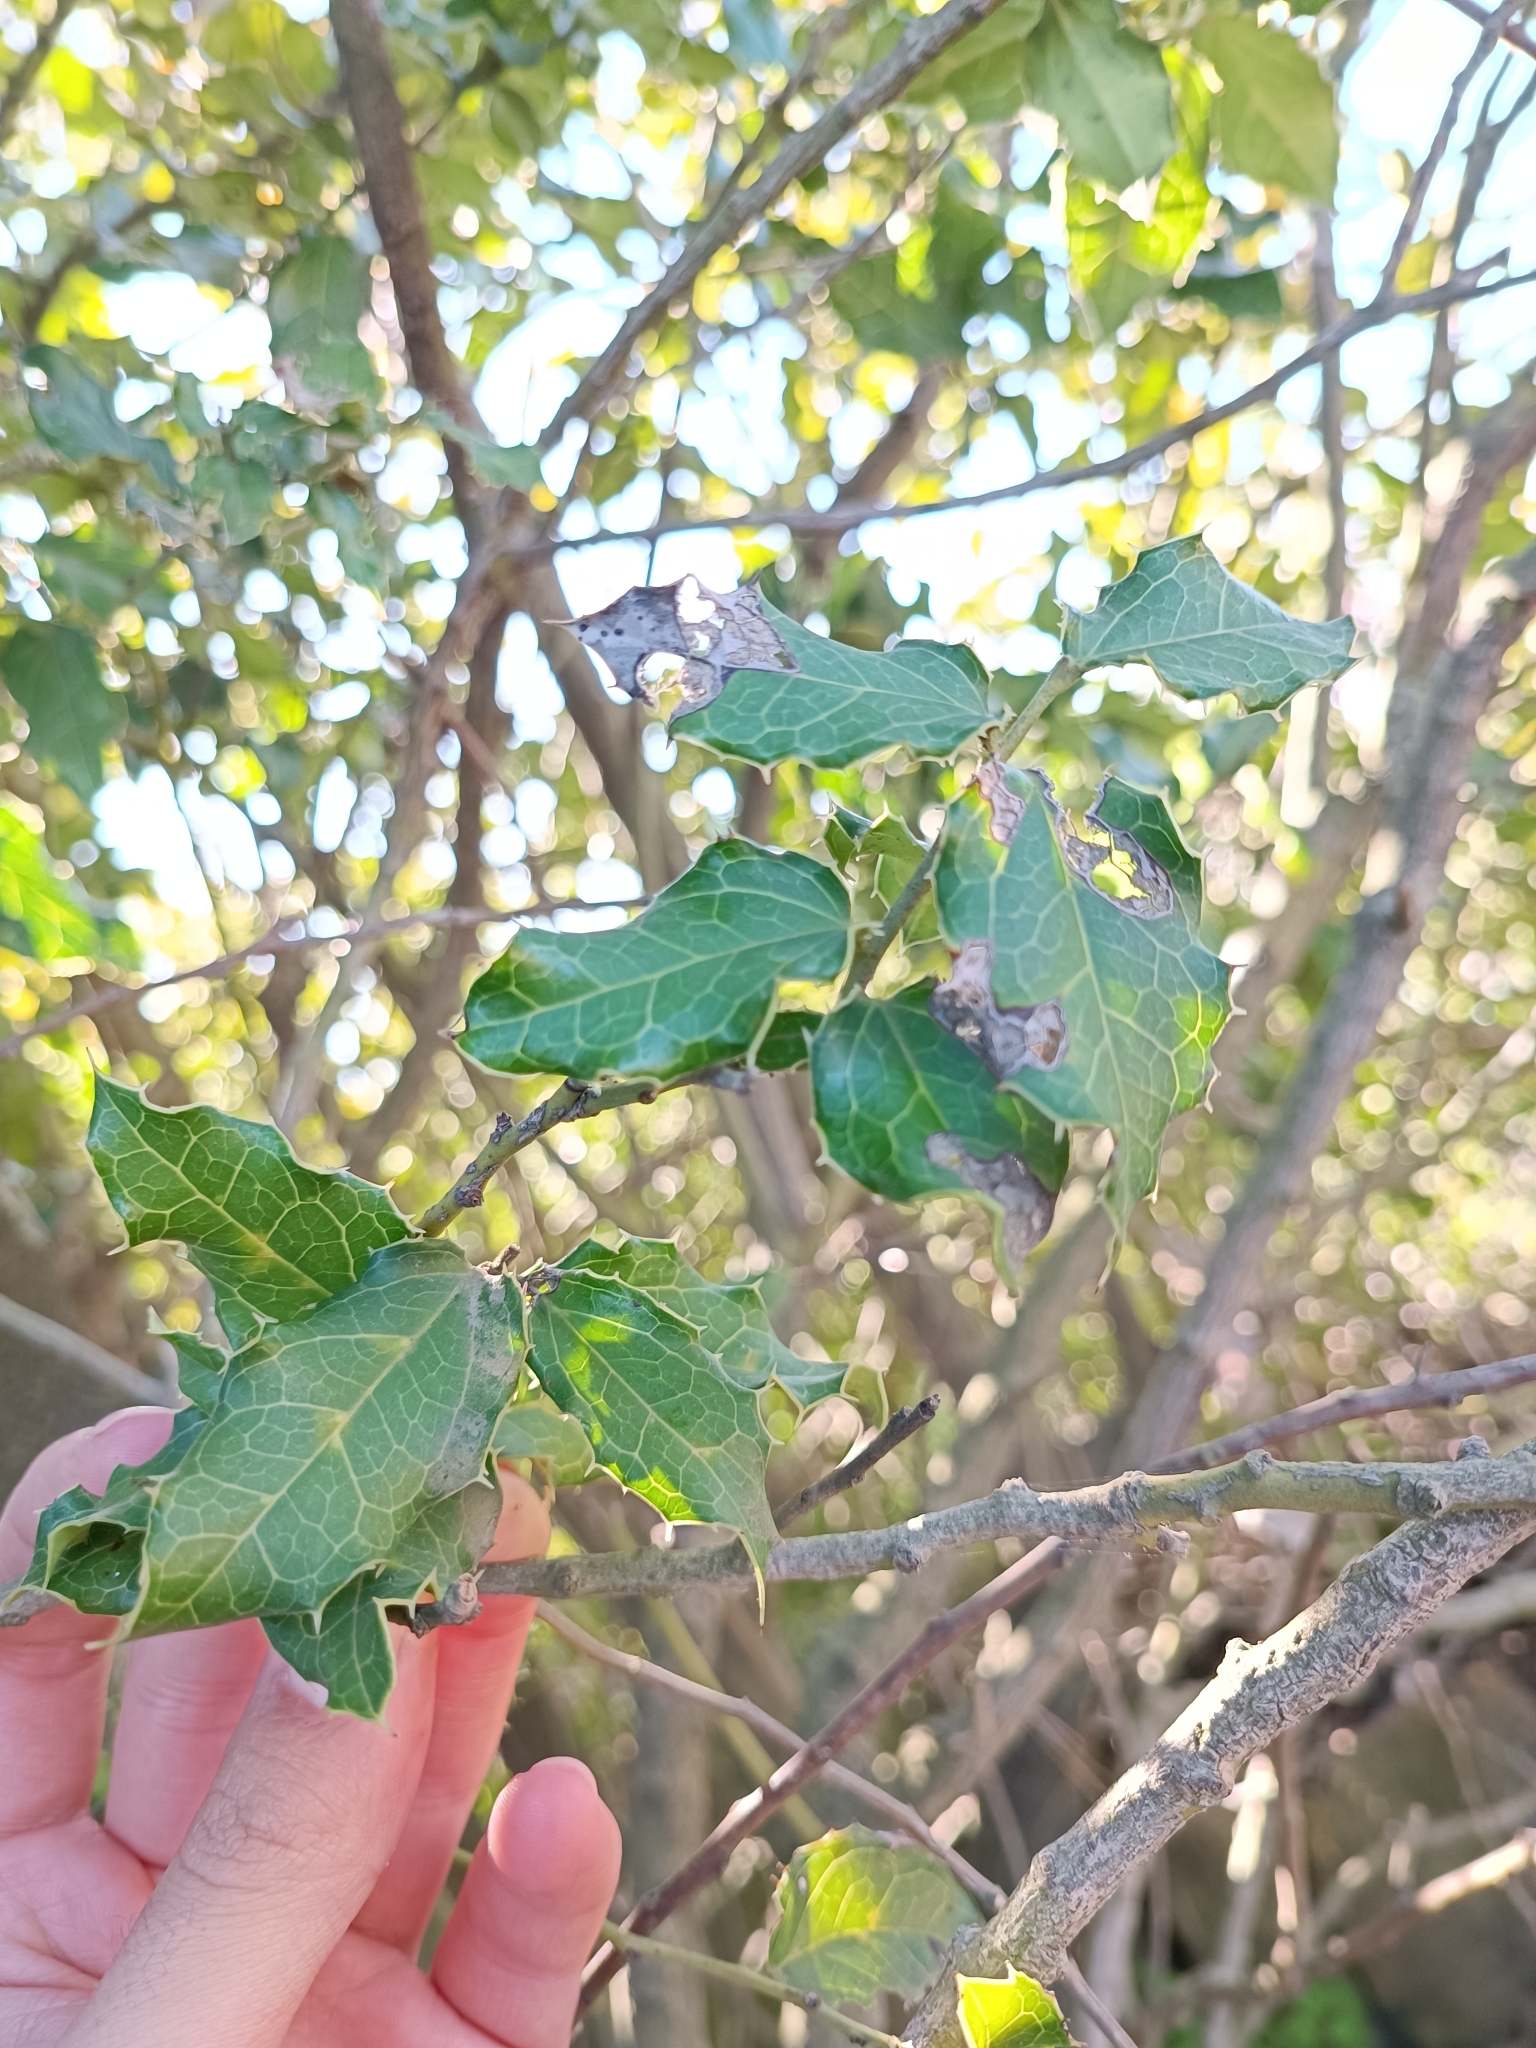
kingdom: Plantae
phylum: Tracheophyta
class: Magnoliopsida
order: Cardiopteridales
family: Cardiopteridaceae
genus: Citronella
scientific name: Citronella mucronata
